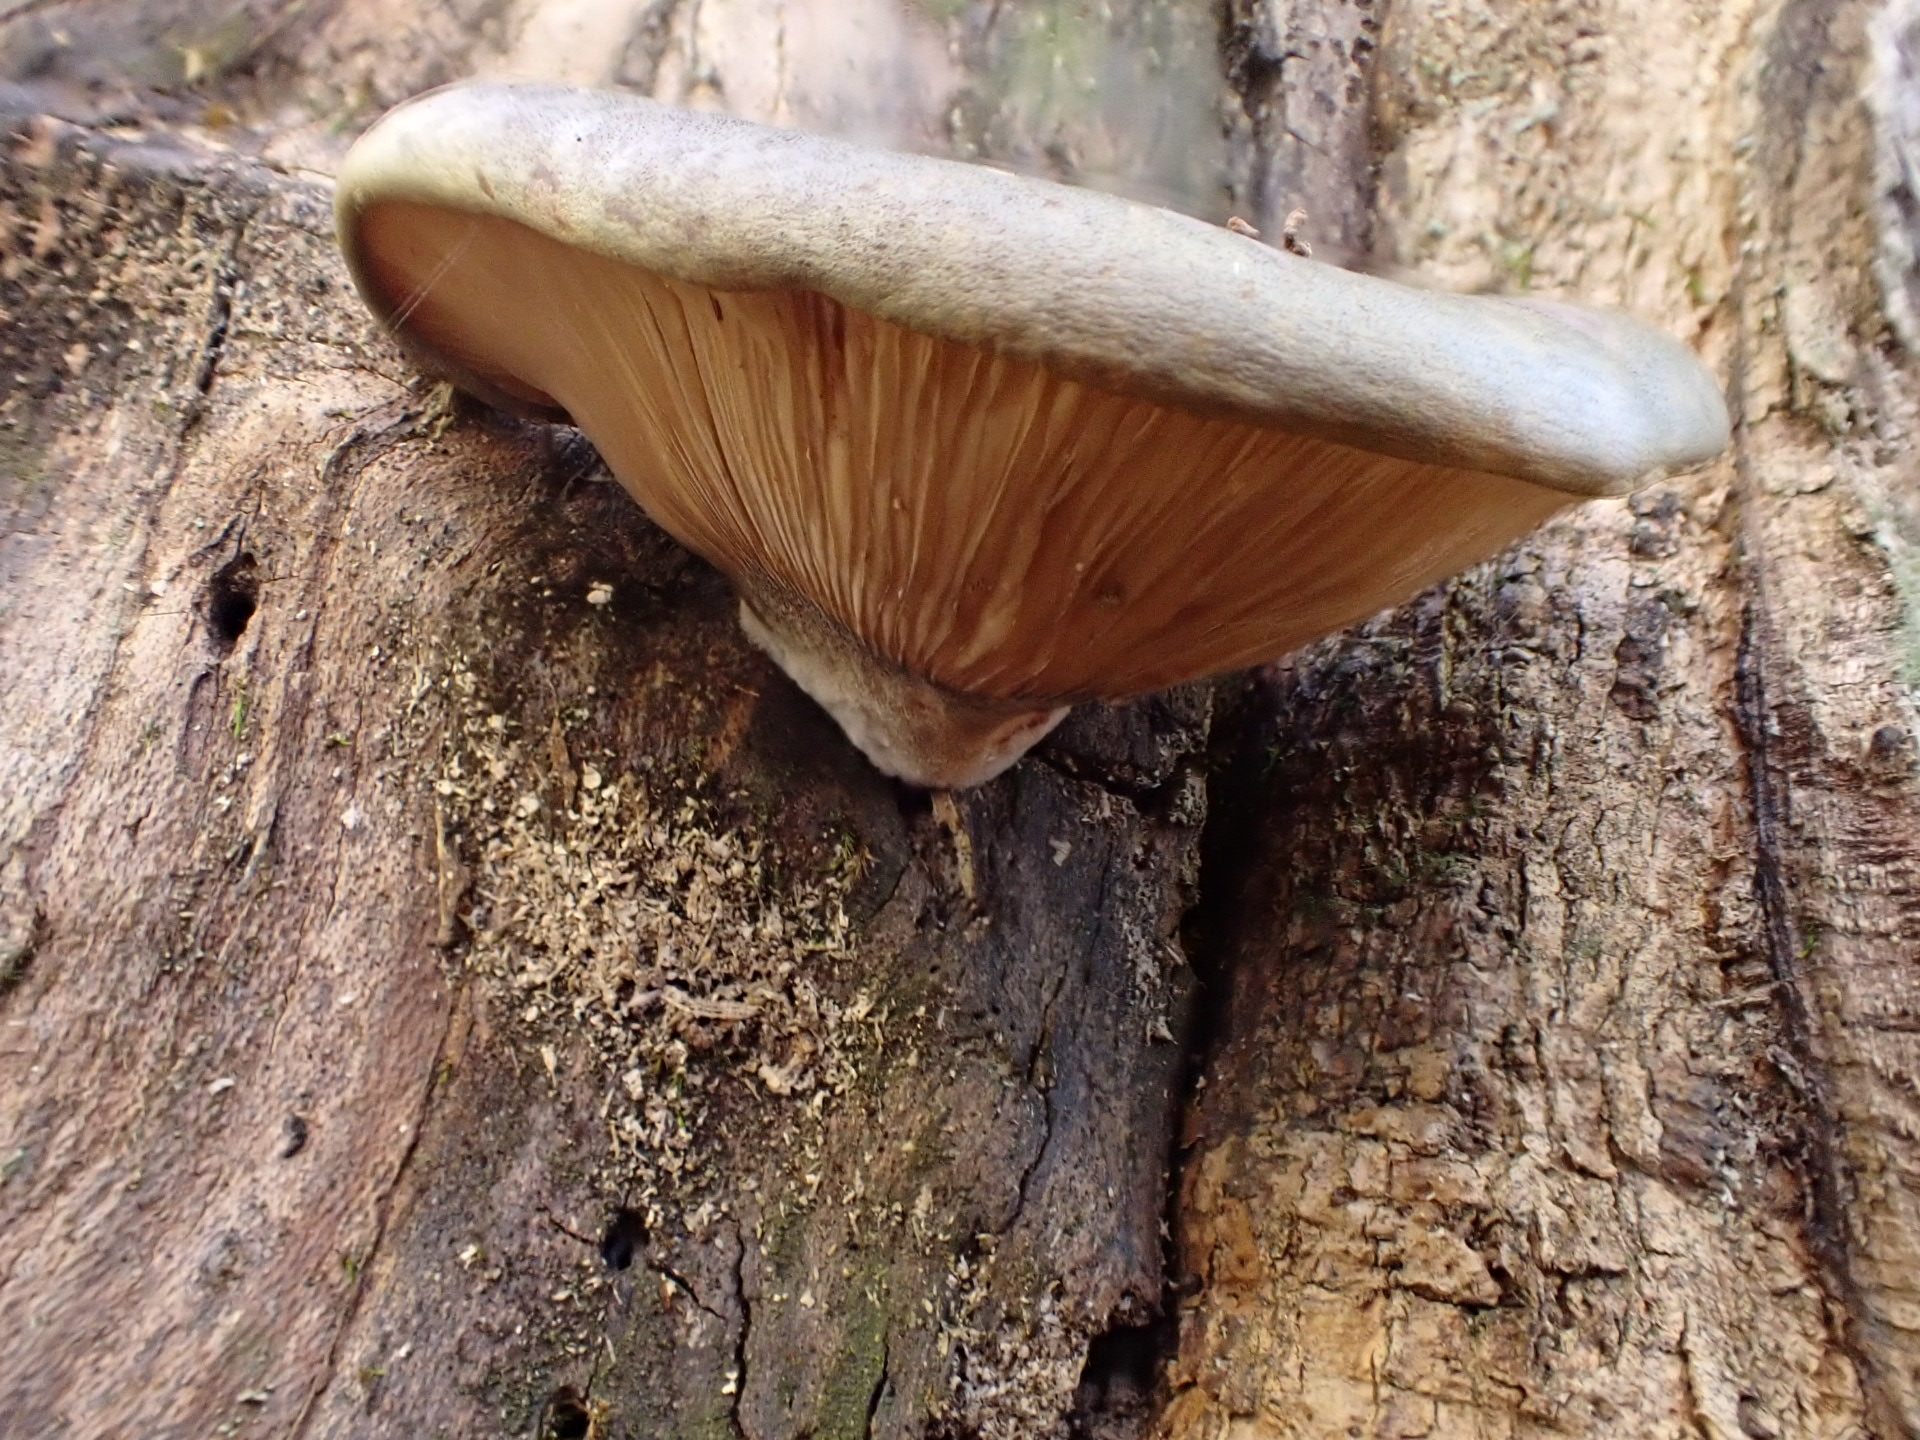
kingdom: Fungi
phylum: Basidiomycota
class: Agaricomycetes
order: Agaricales
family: Sarcomyxaceae
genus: Sarcomyxa
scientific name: Sarcomyxa serotina
